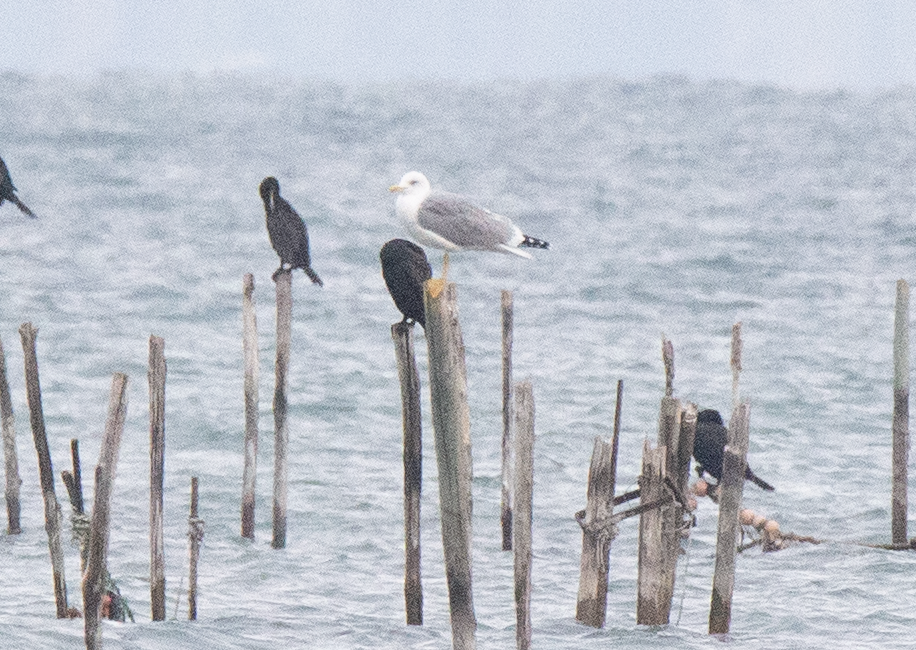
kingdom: Animalia
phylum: Chordata
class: Aves
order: Charadriiformes
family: Laridae
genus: Larus
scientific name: Larus michahellis
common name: Yellow-legged gull
